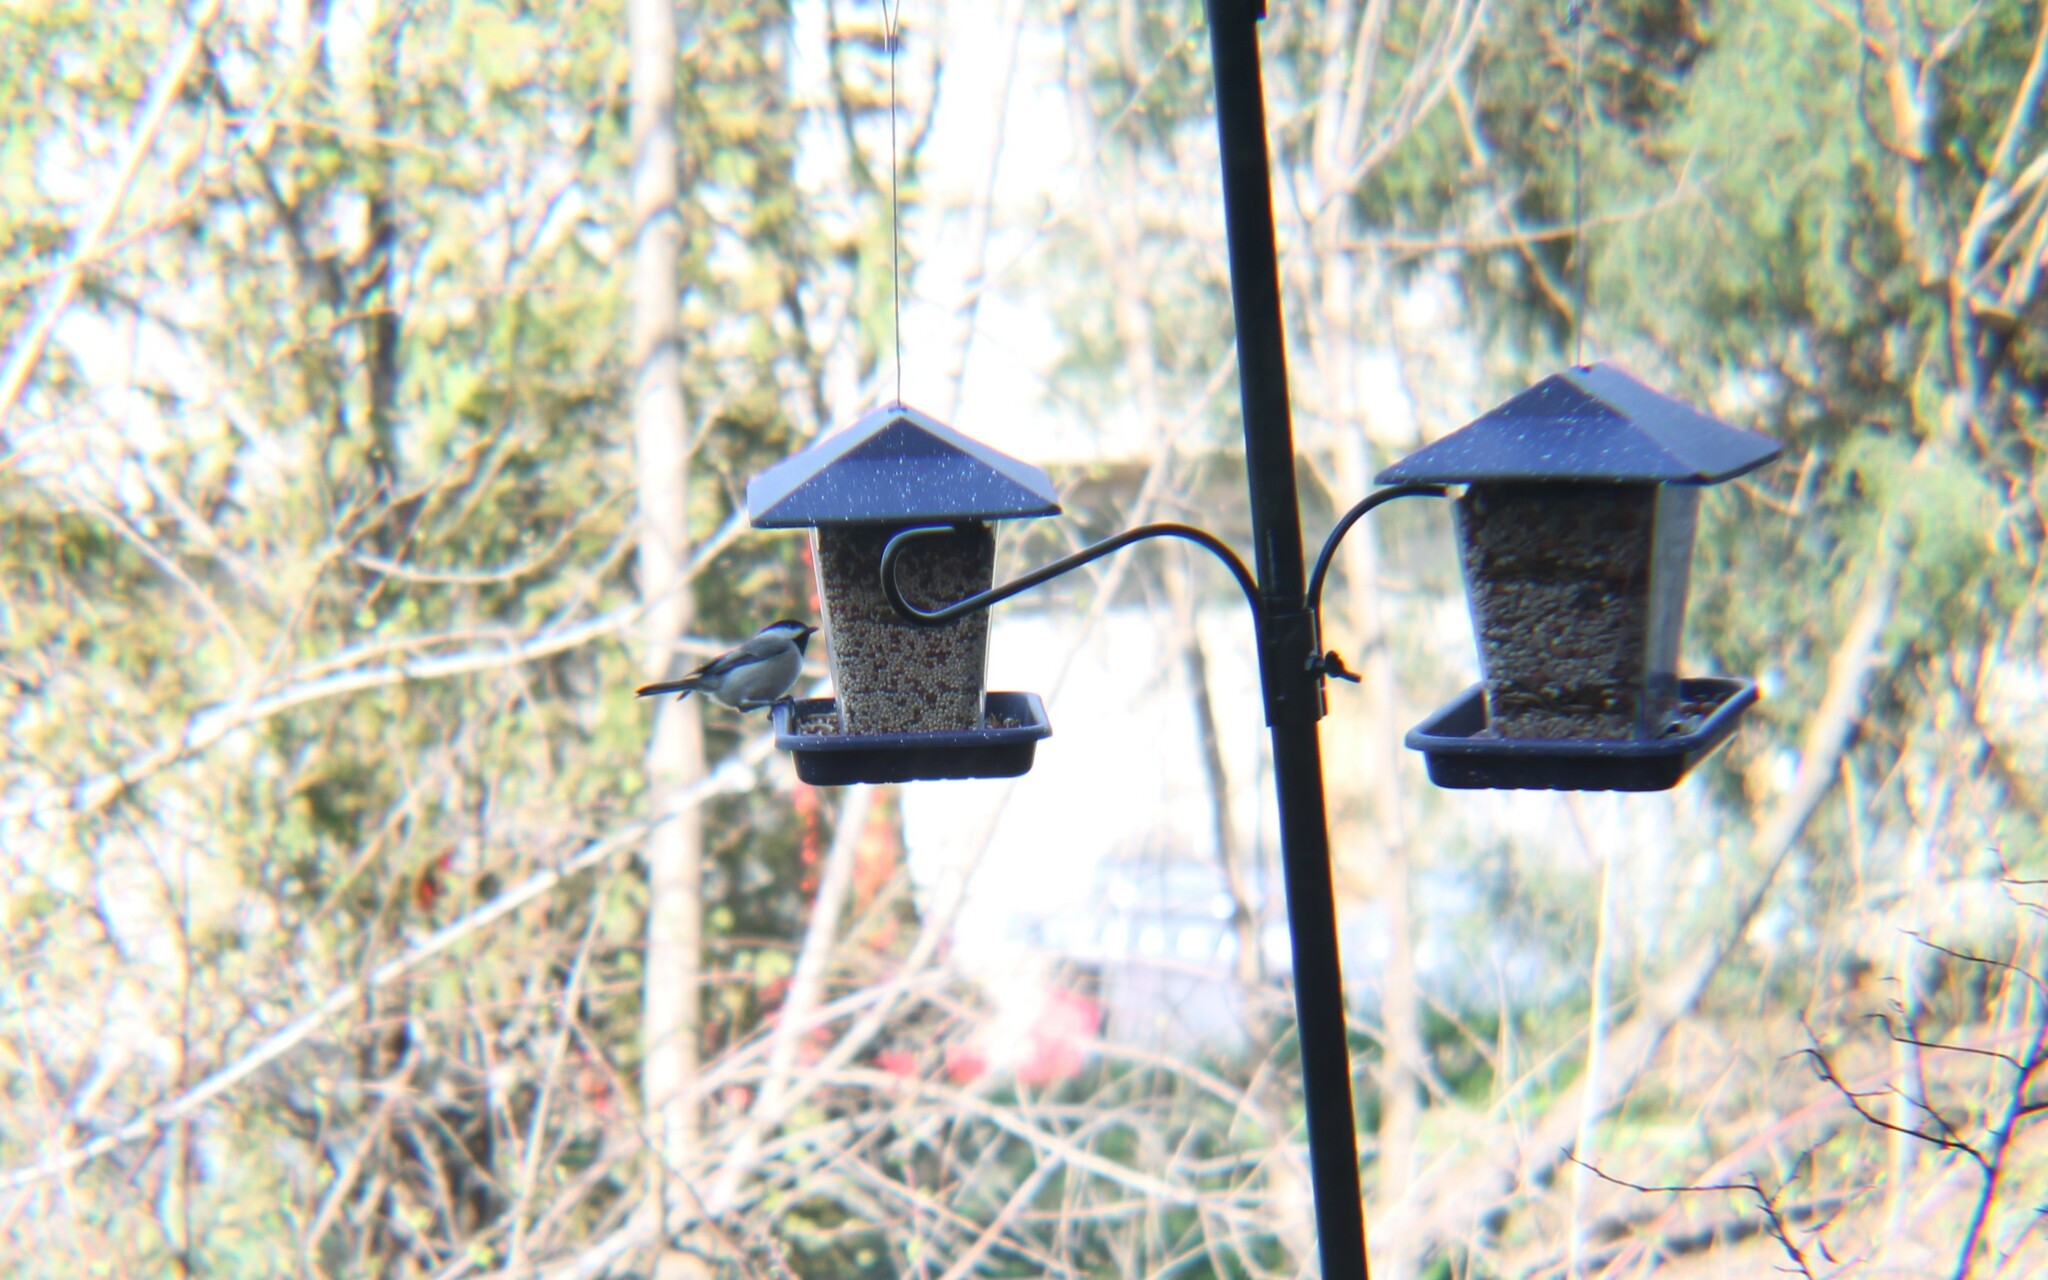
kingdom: Animalia
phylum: Chordata
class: Aves
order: Passeriformes
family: Paridae
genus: Poecile
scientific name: Poecile carolinensis
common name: Carolina chickadee
